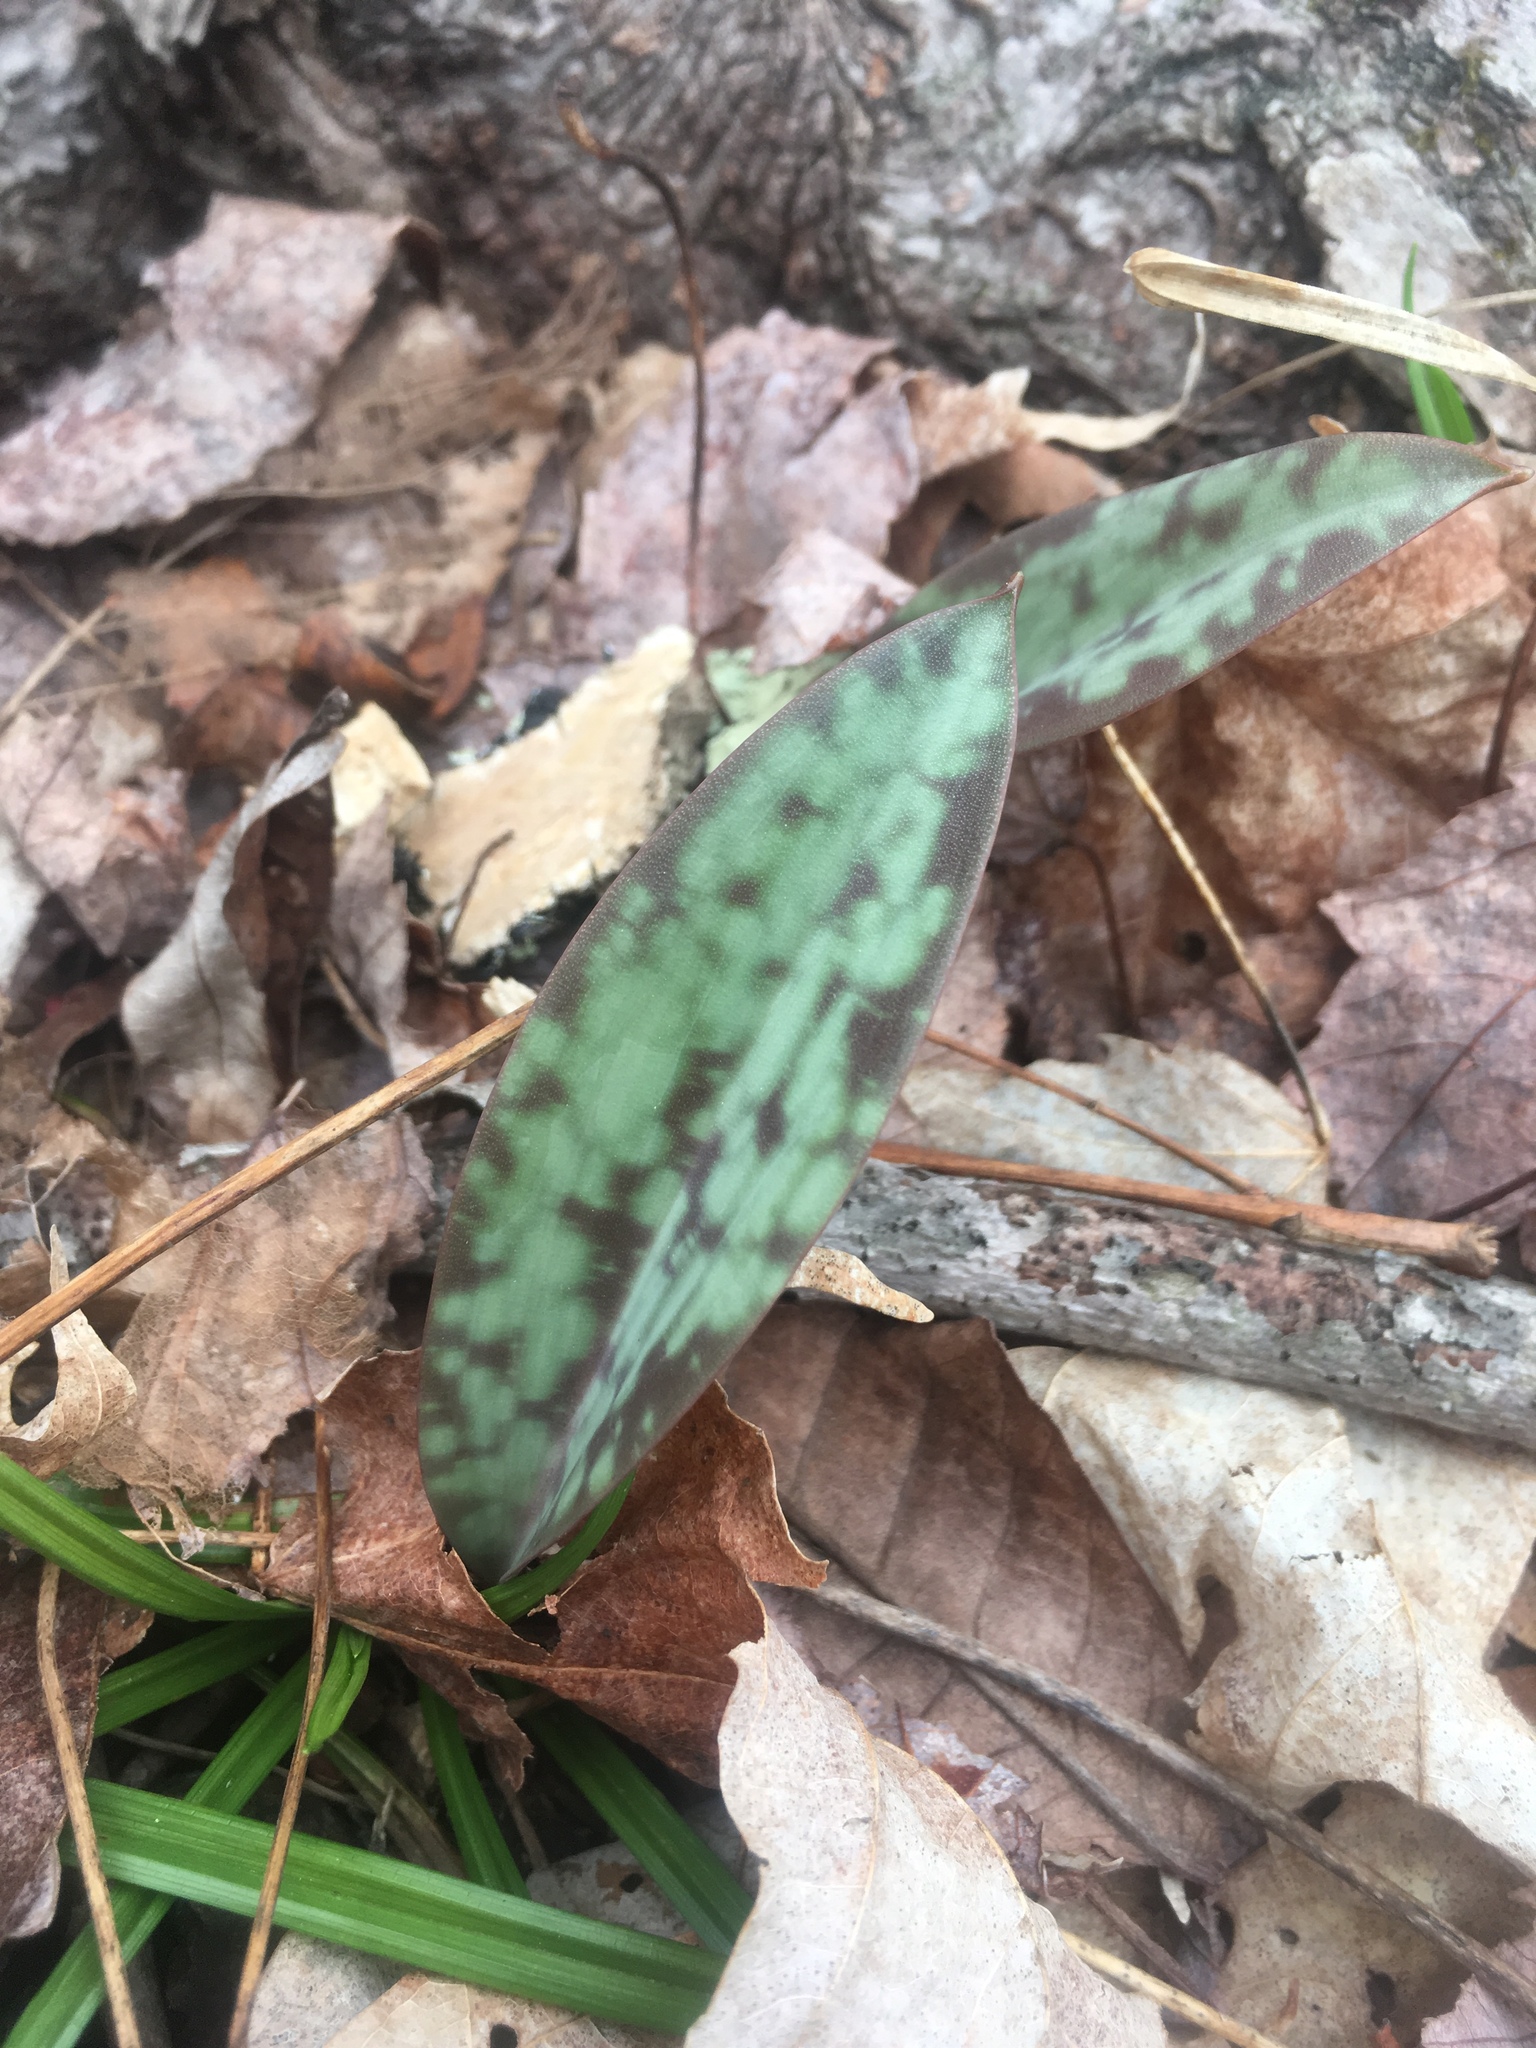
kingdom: Plantae
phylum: Tracheophyta
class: Liliopsida
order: Liliales
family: Liliaceae
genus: Erythronium
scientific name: Erythronium americanum
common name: Yellow adder's-tongue
